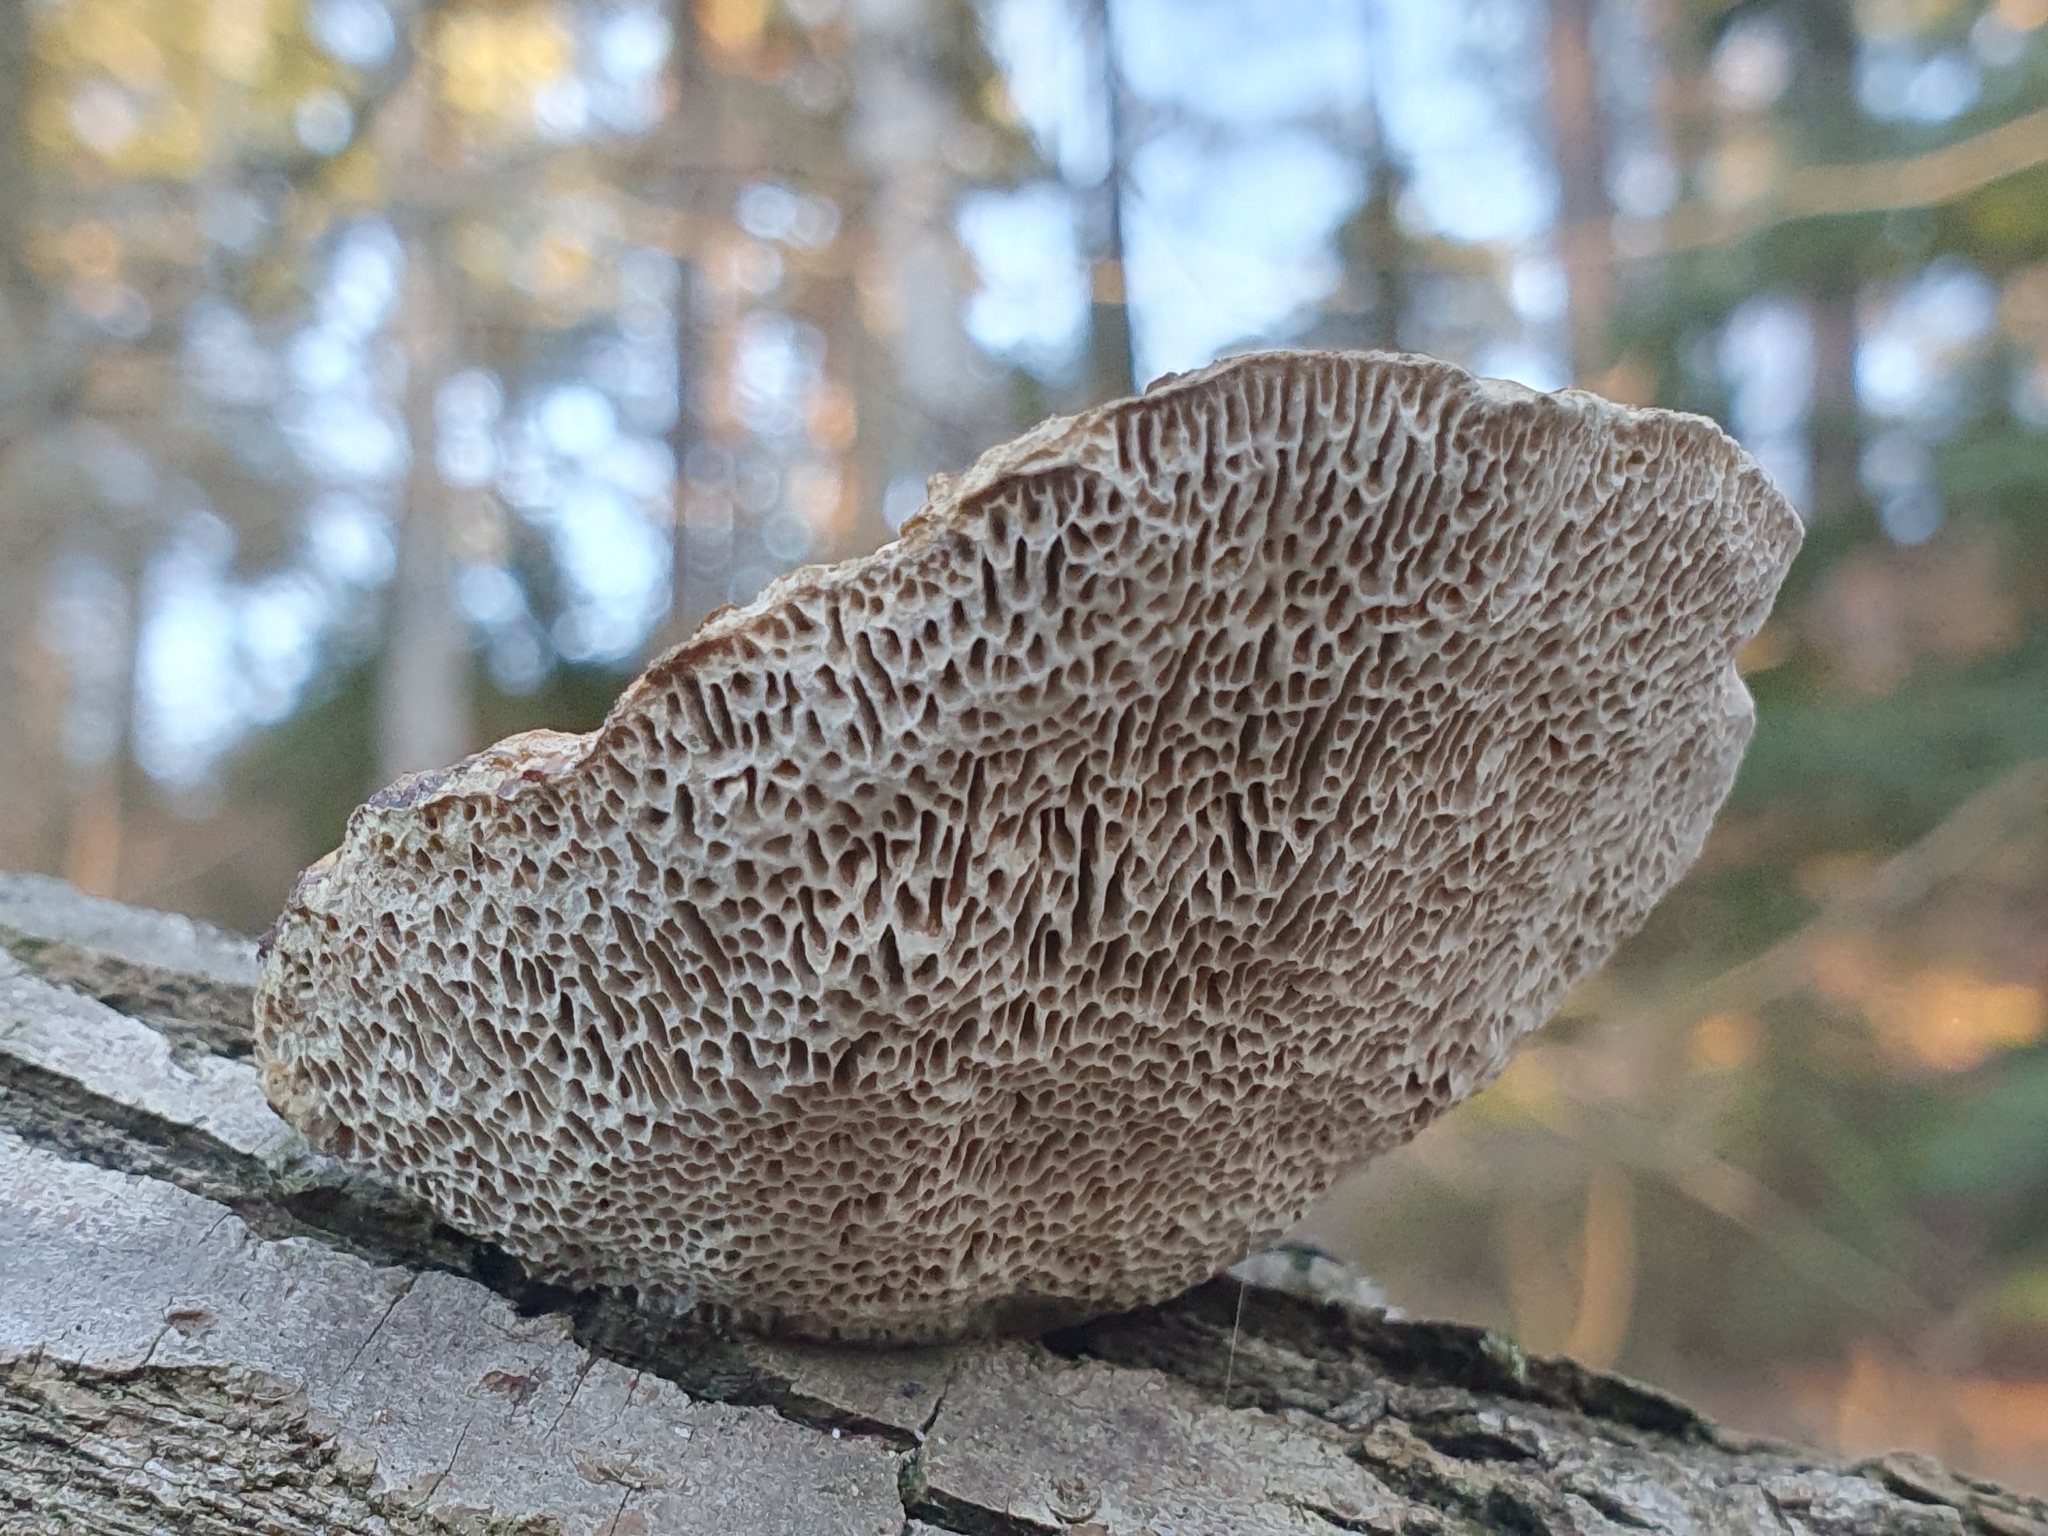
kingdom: Fungi
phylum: Basidiomycota
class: Agaricomycetes
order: Polyporales
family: Polyporaceae
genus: Daedaleopsis
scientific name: Daedaleopsis confragosa
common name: Blushing bracket
